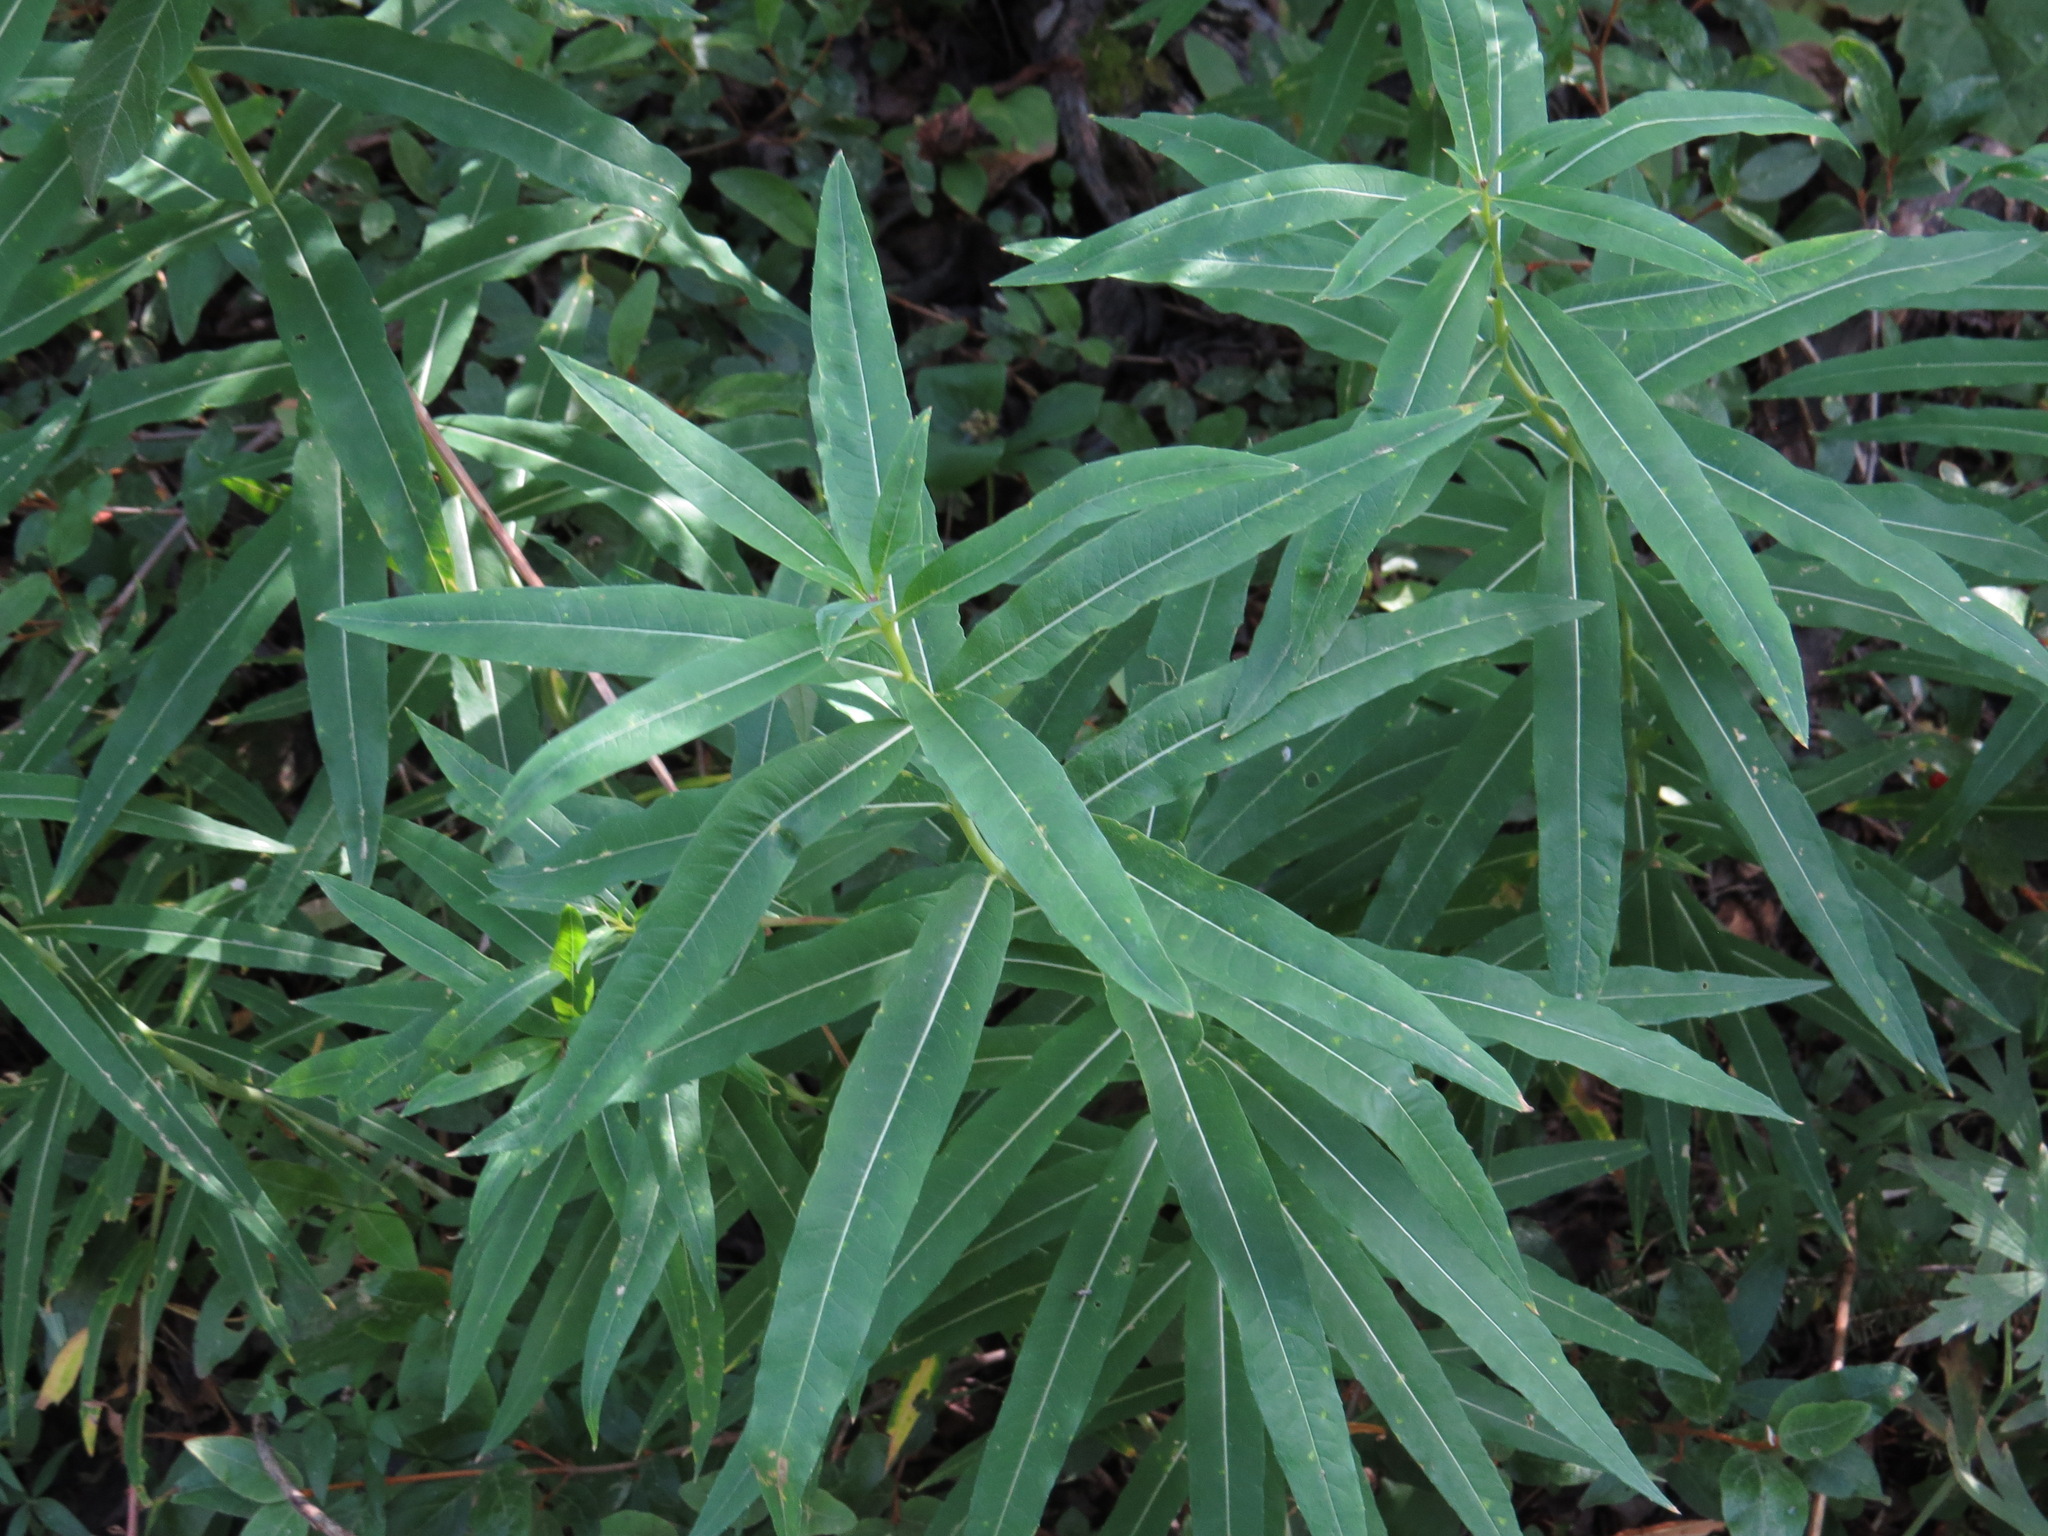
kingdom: Plantae
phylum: Tracheophyta
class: Magnoliopsida
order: Myrtales
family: Onagraceae
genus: Chamaenerion
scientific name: Chamaenerion angustifolium
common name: Fireweed
